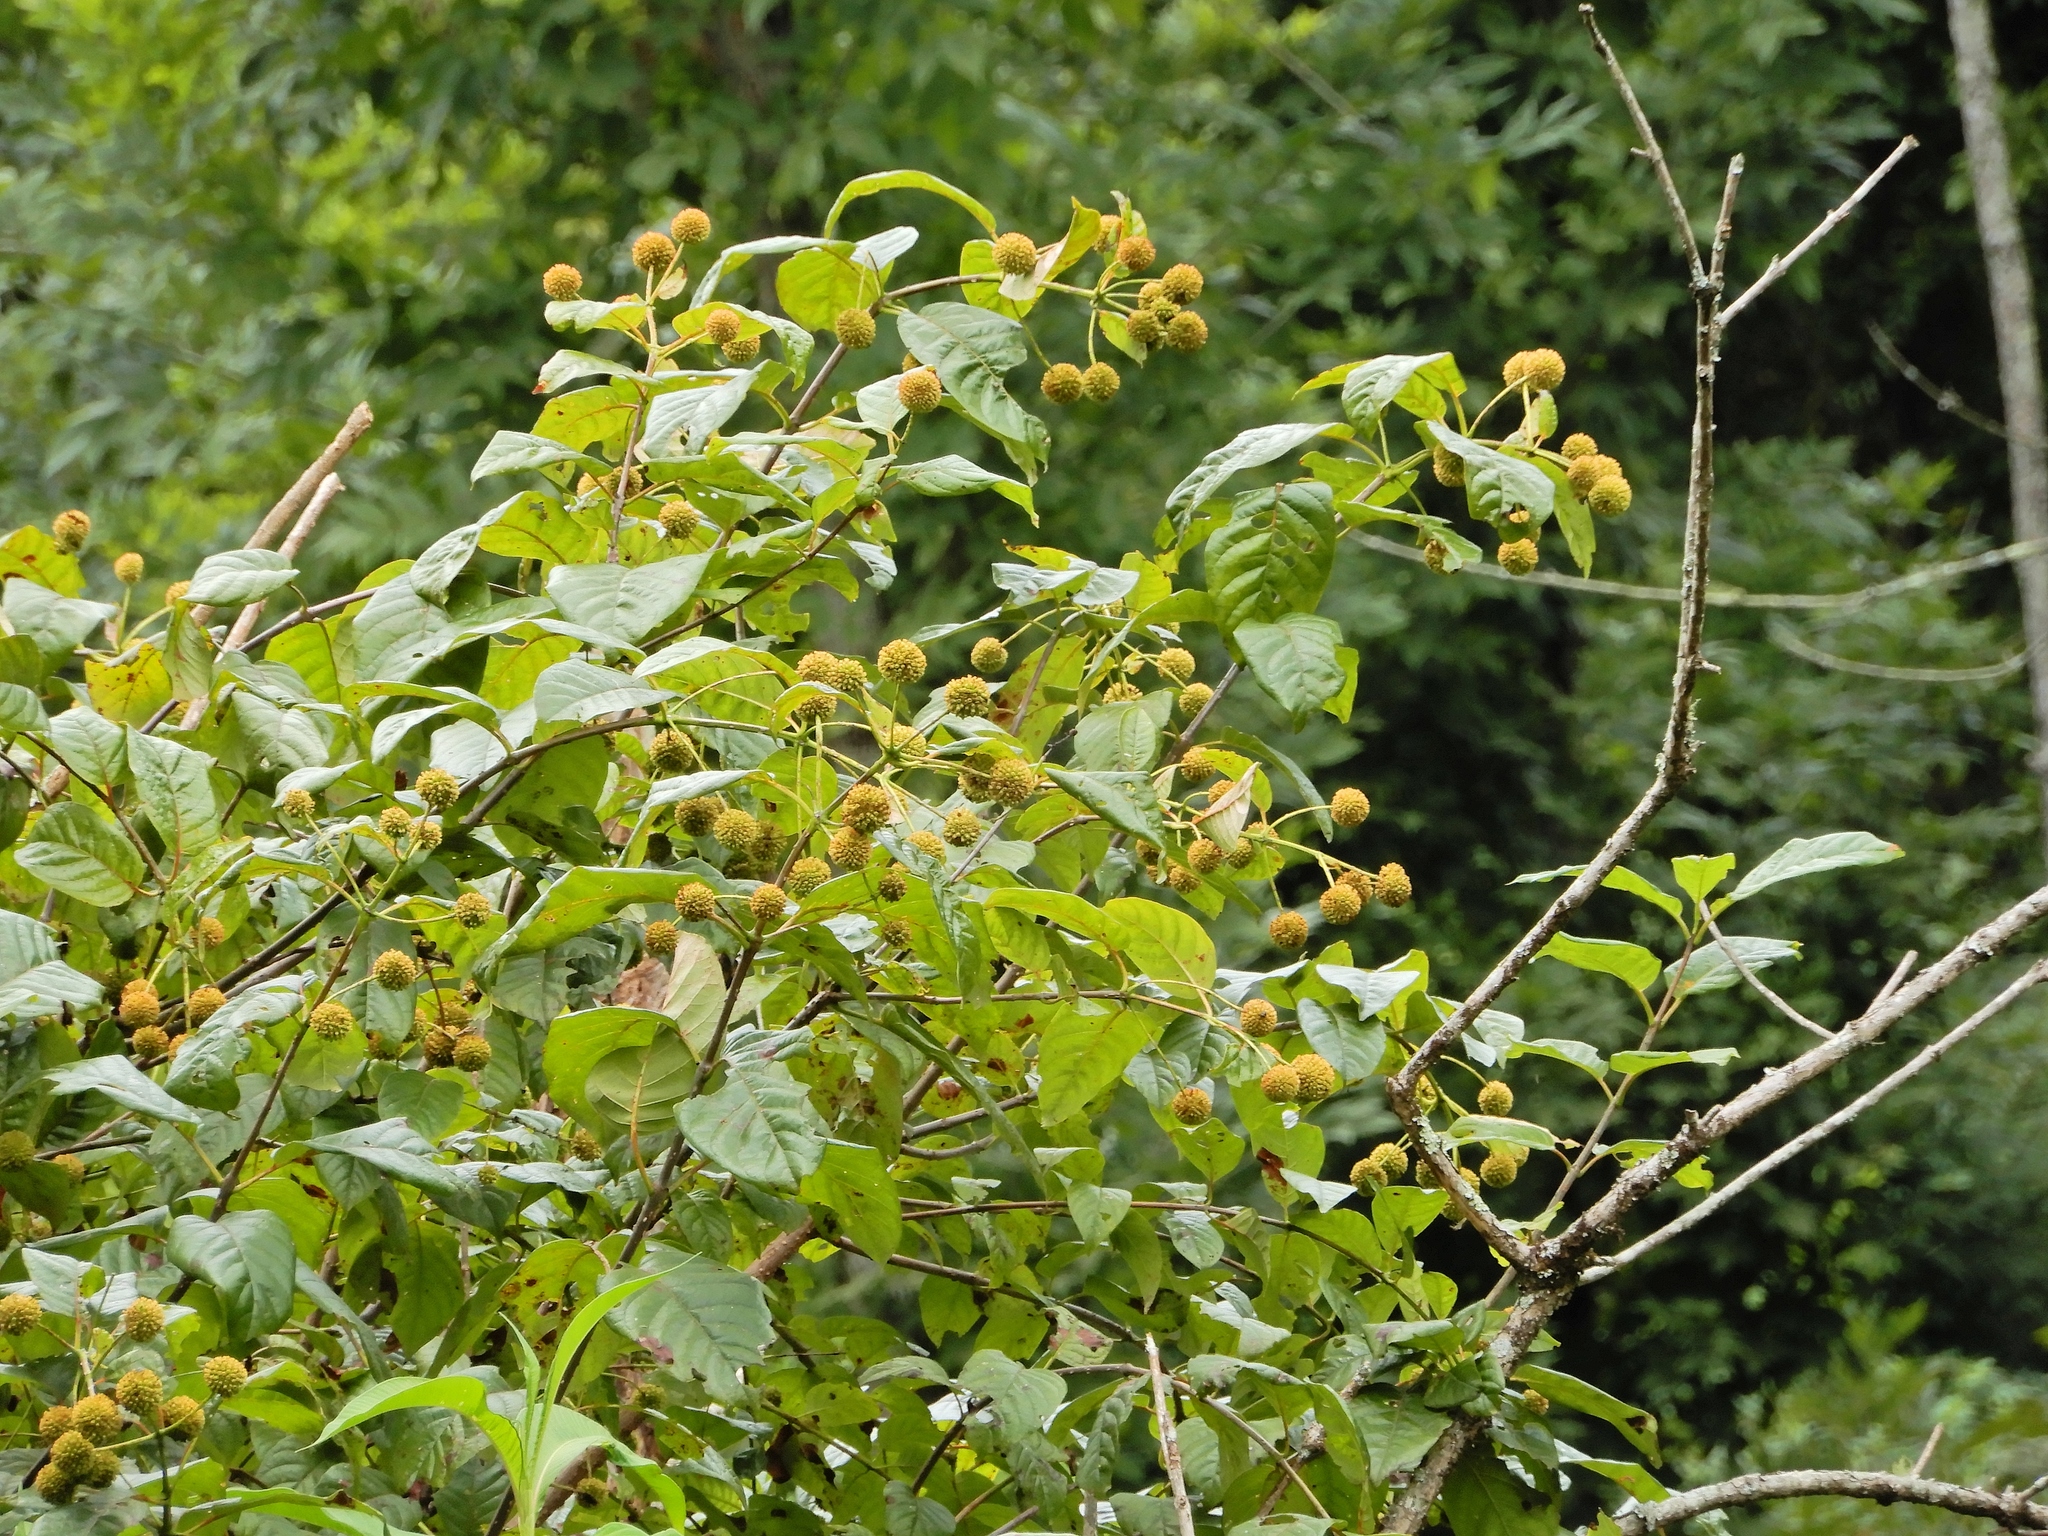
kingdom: Plantae
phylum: Tracheophyta
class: Magnoliopsida
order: Gentianales
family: Rubiaceae
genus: Cephalanthus
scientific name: Cephalanthus occidentalis
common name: Button-willow
